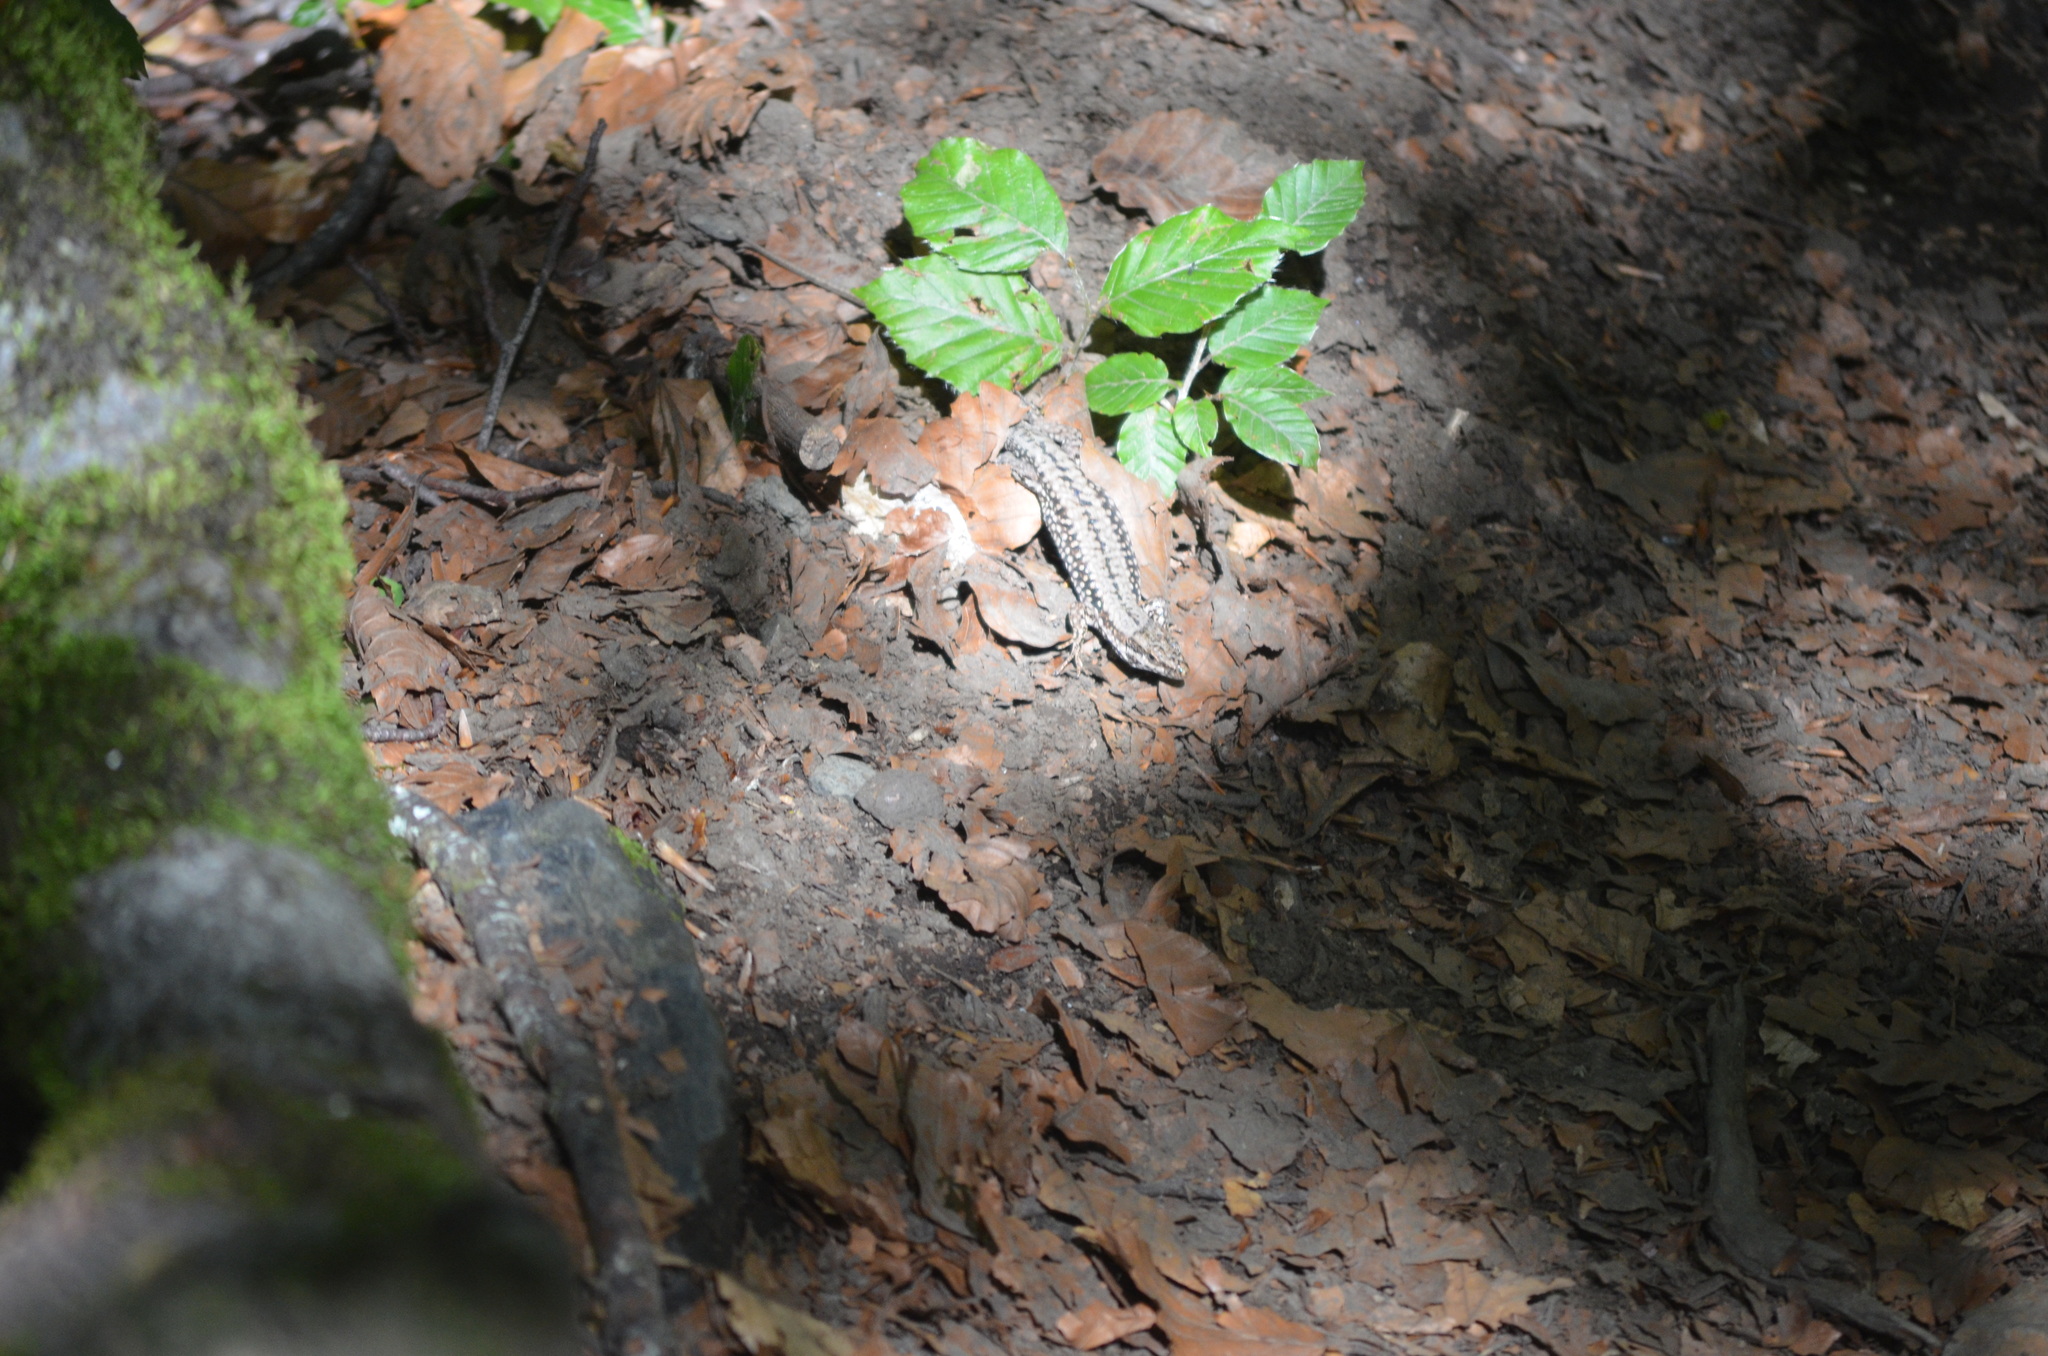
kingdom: Animalia
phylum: Chordata
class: Squamata
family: Lacertidae
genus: Podarcis
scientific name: Podarcis muralis
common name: Common wall lizard
